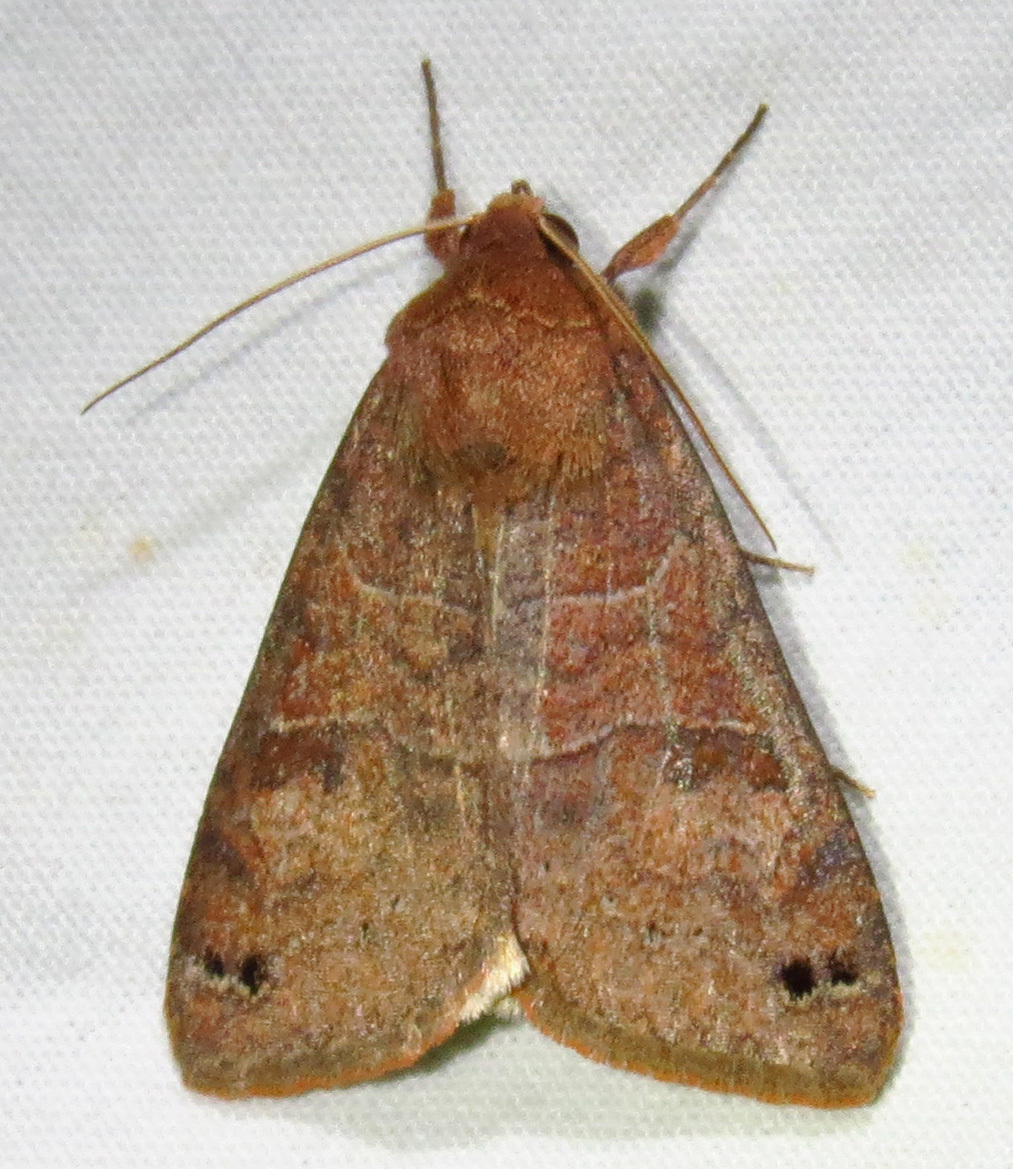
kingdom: Animalia
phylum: Arthropoda
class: Insecta
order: Lepidoptera
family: Erebidae
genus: Cissusa
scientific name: Cissusa spadix
